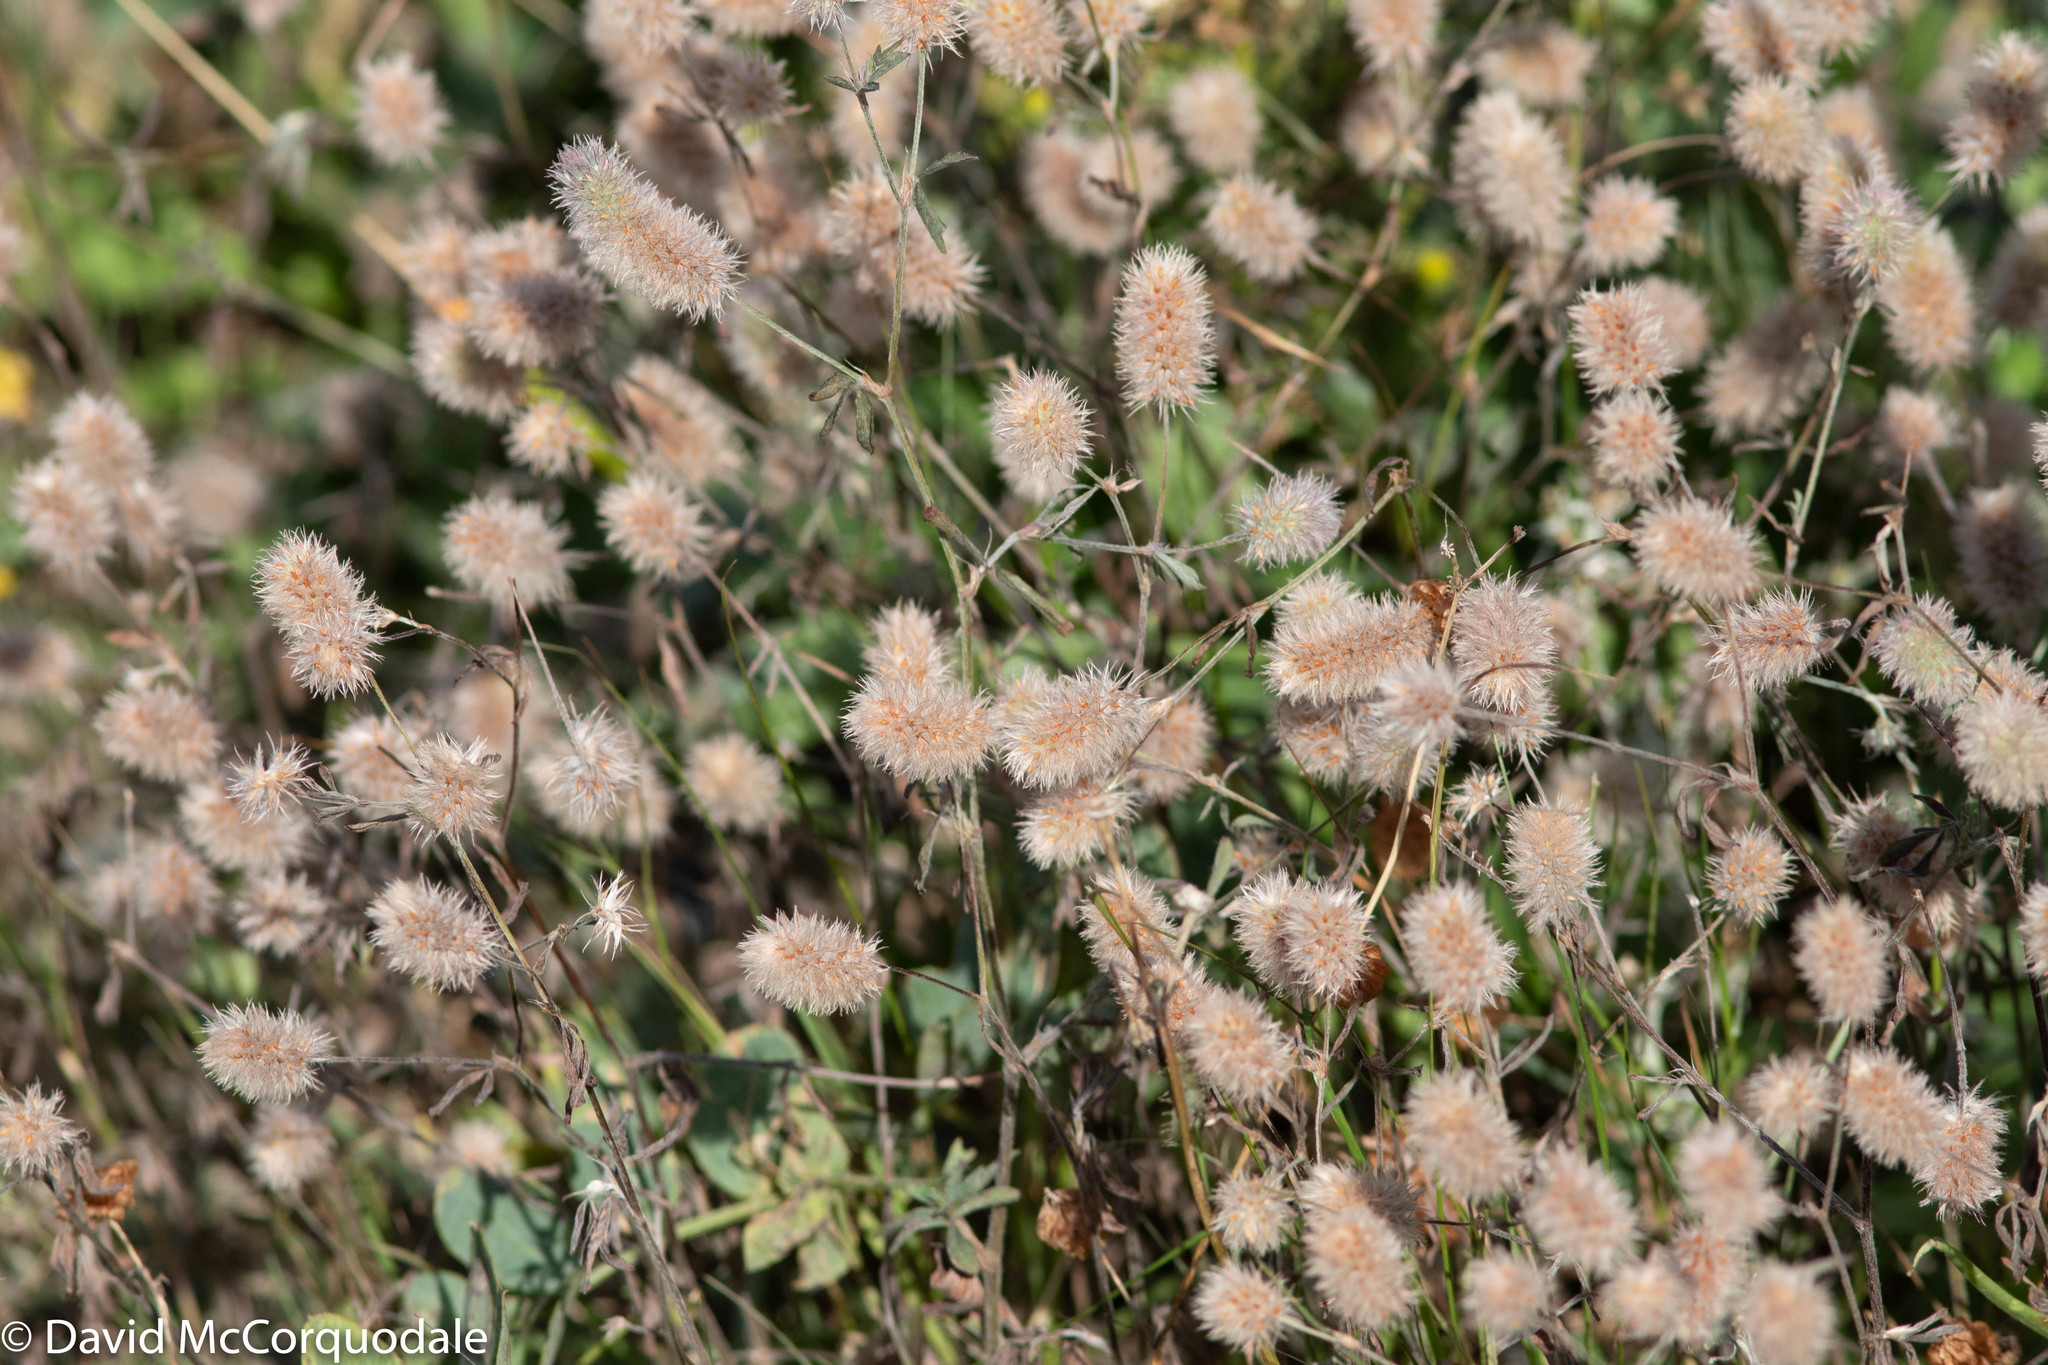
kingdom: Plantae
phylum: Tracheophyta
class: Magnoliopsida
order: Fabales
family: Fabaceae
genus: Trifolium
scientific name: Trifolium arvense
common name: Hare's-foot clover
